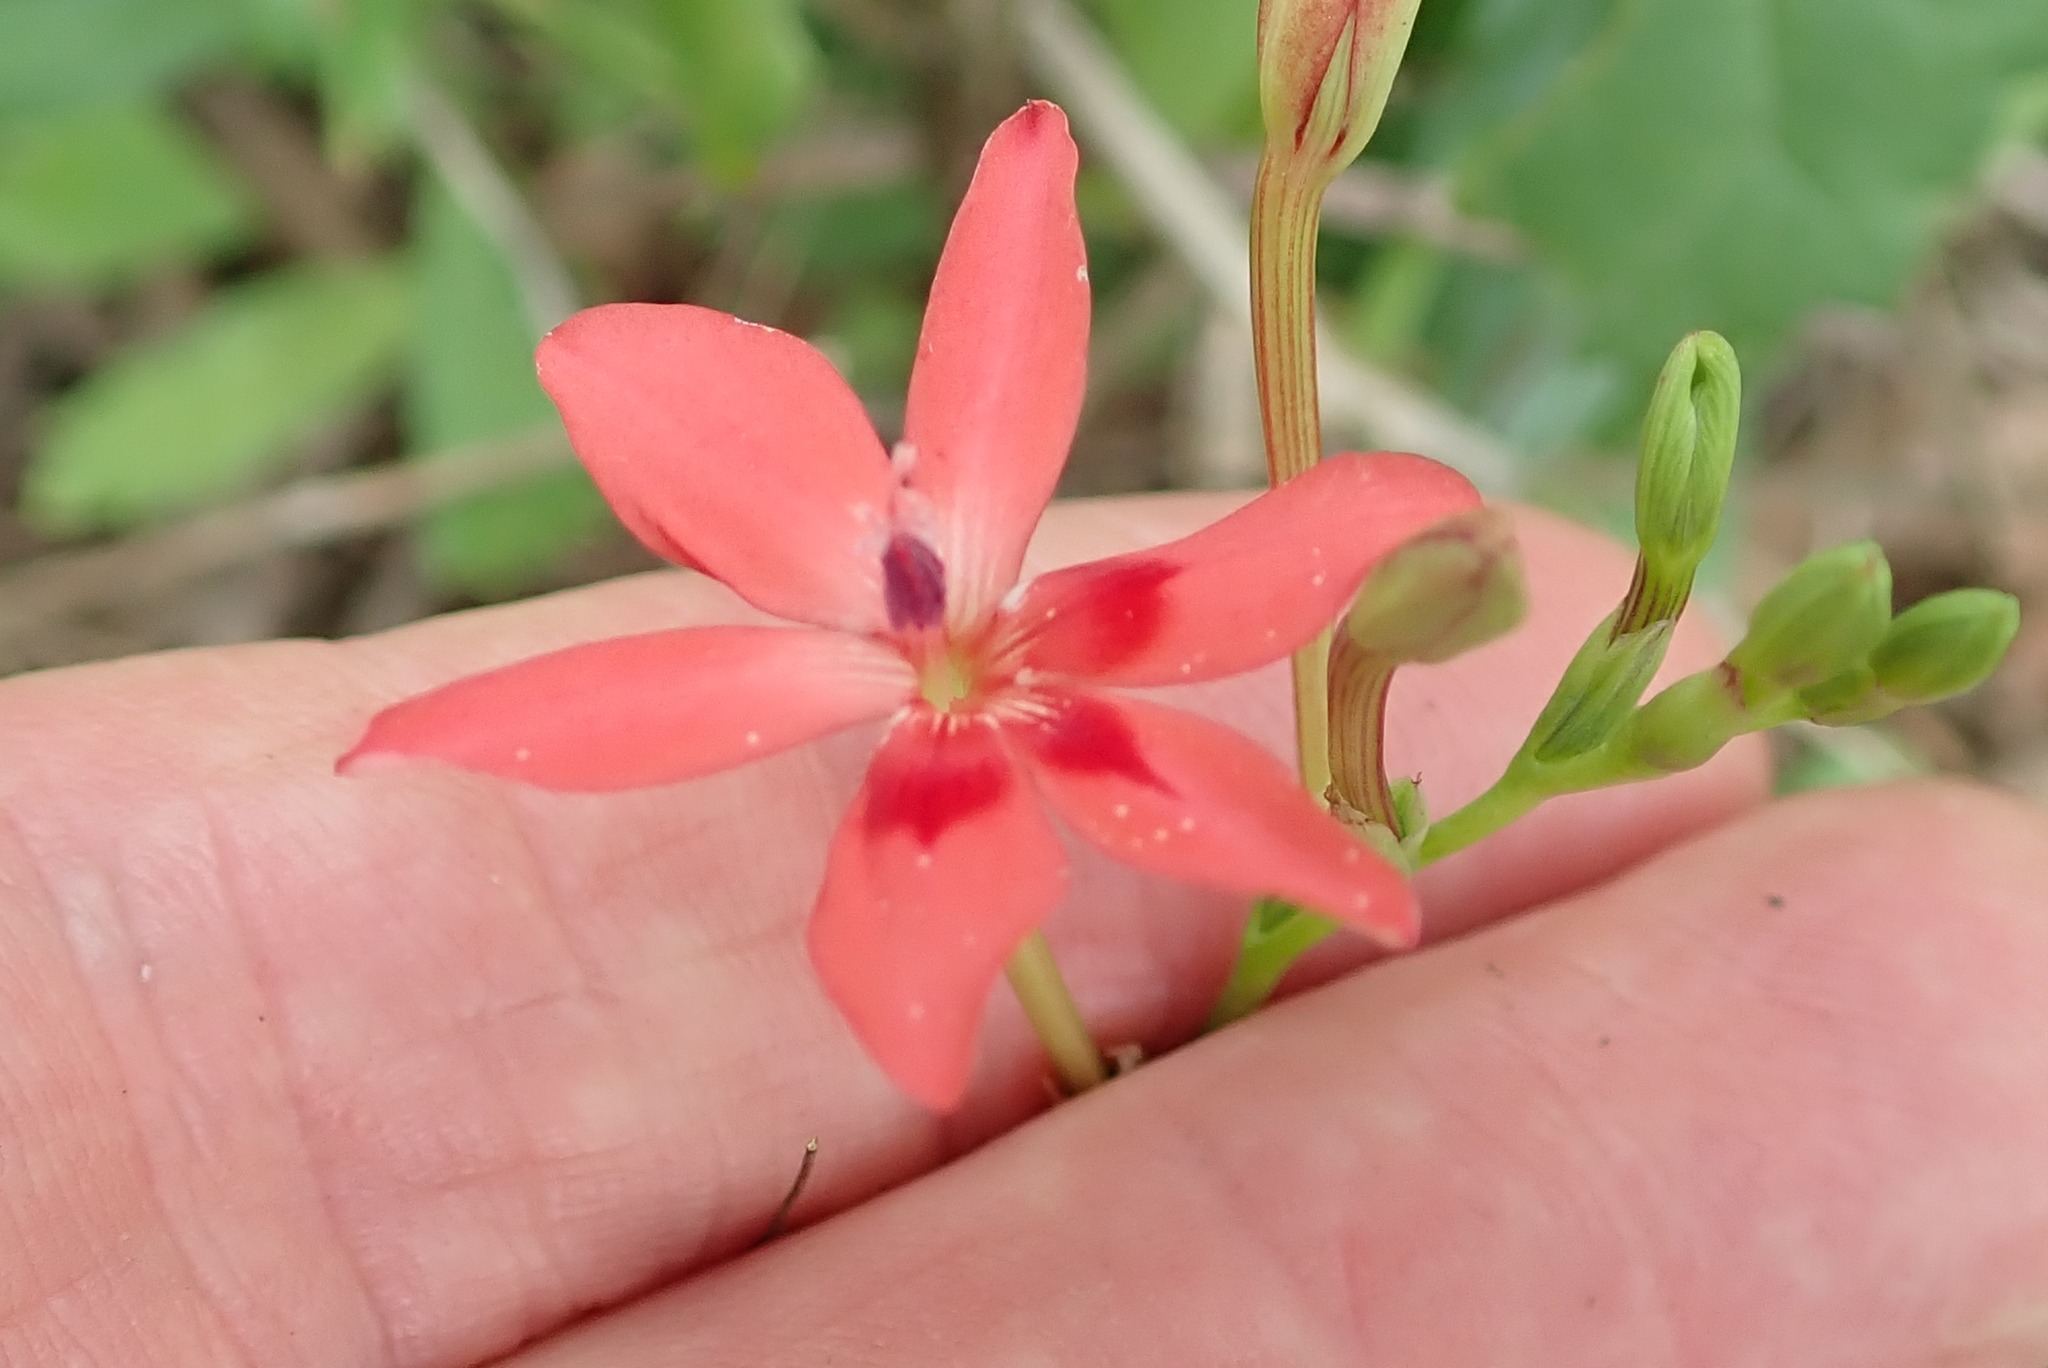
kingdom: Plantae
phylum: Tracheophyta
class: Liliopsida
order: Asparagales
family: Iridaceae
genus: Freesia
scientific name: Freesia laxa
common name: False freesia
